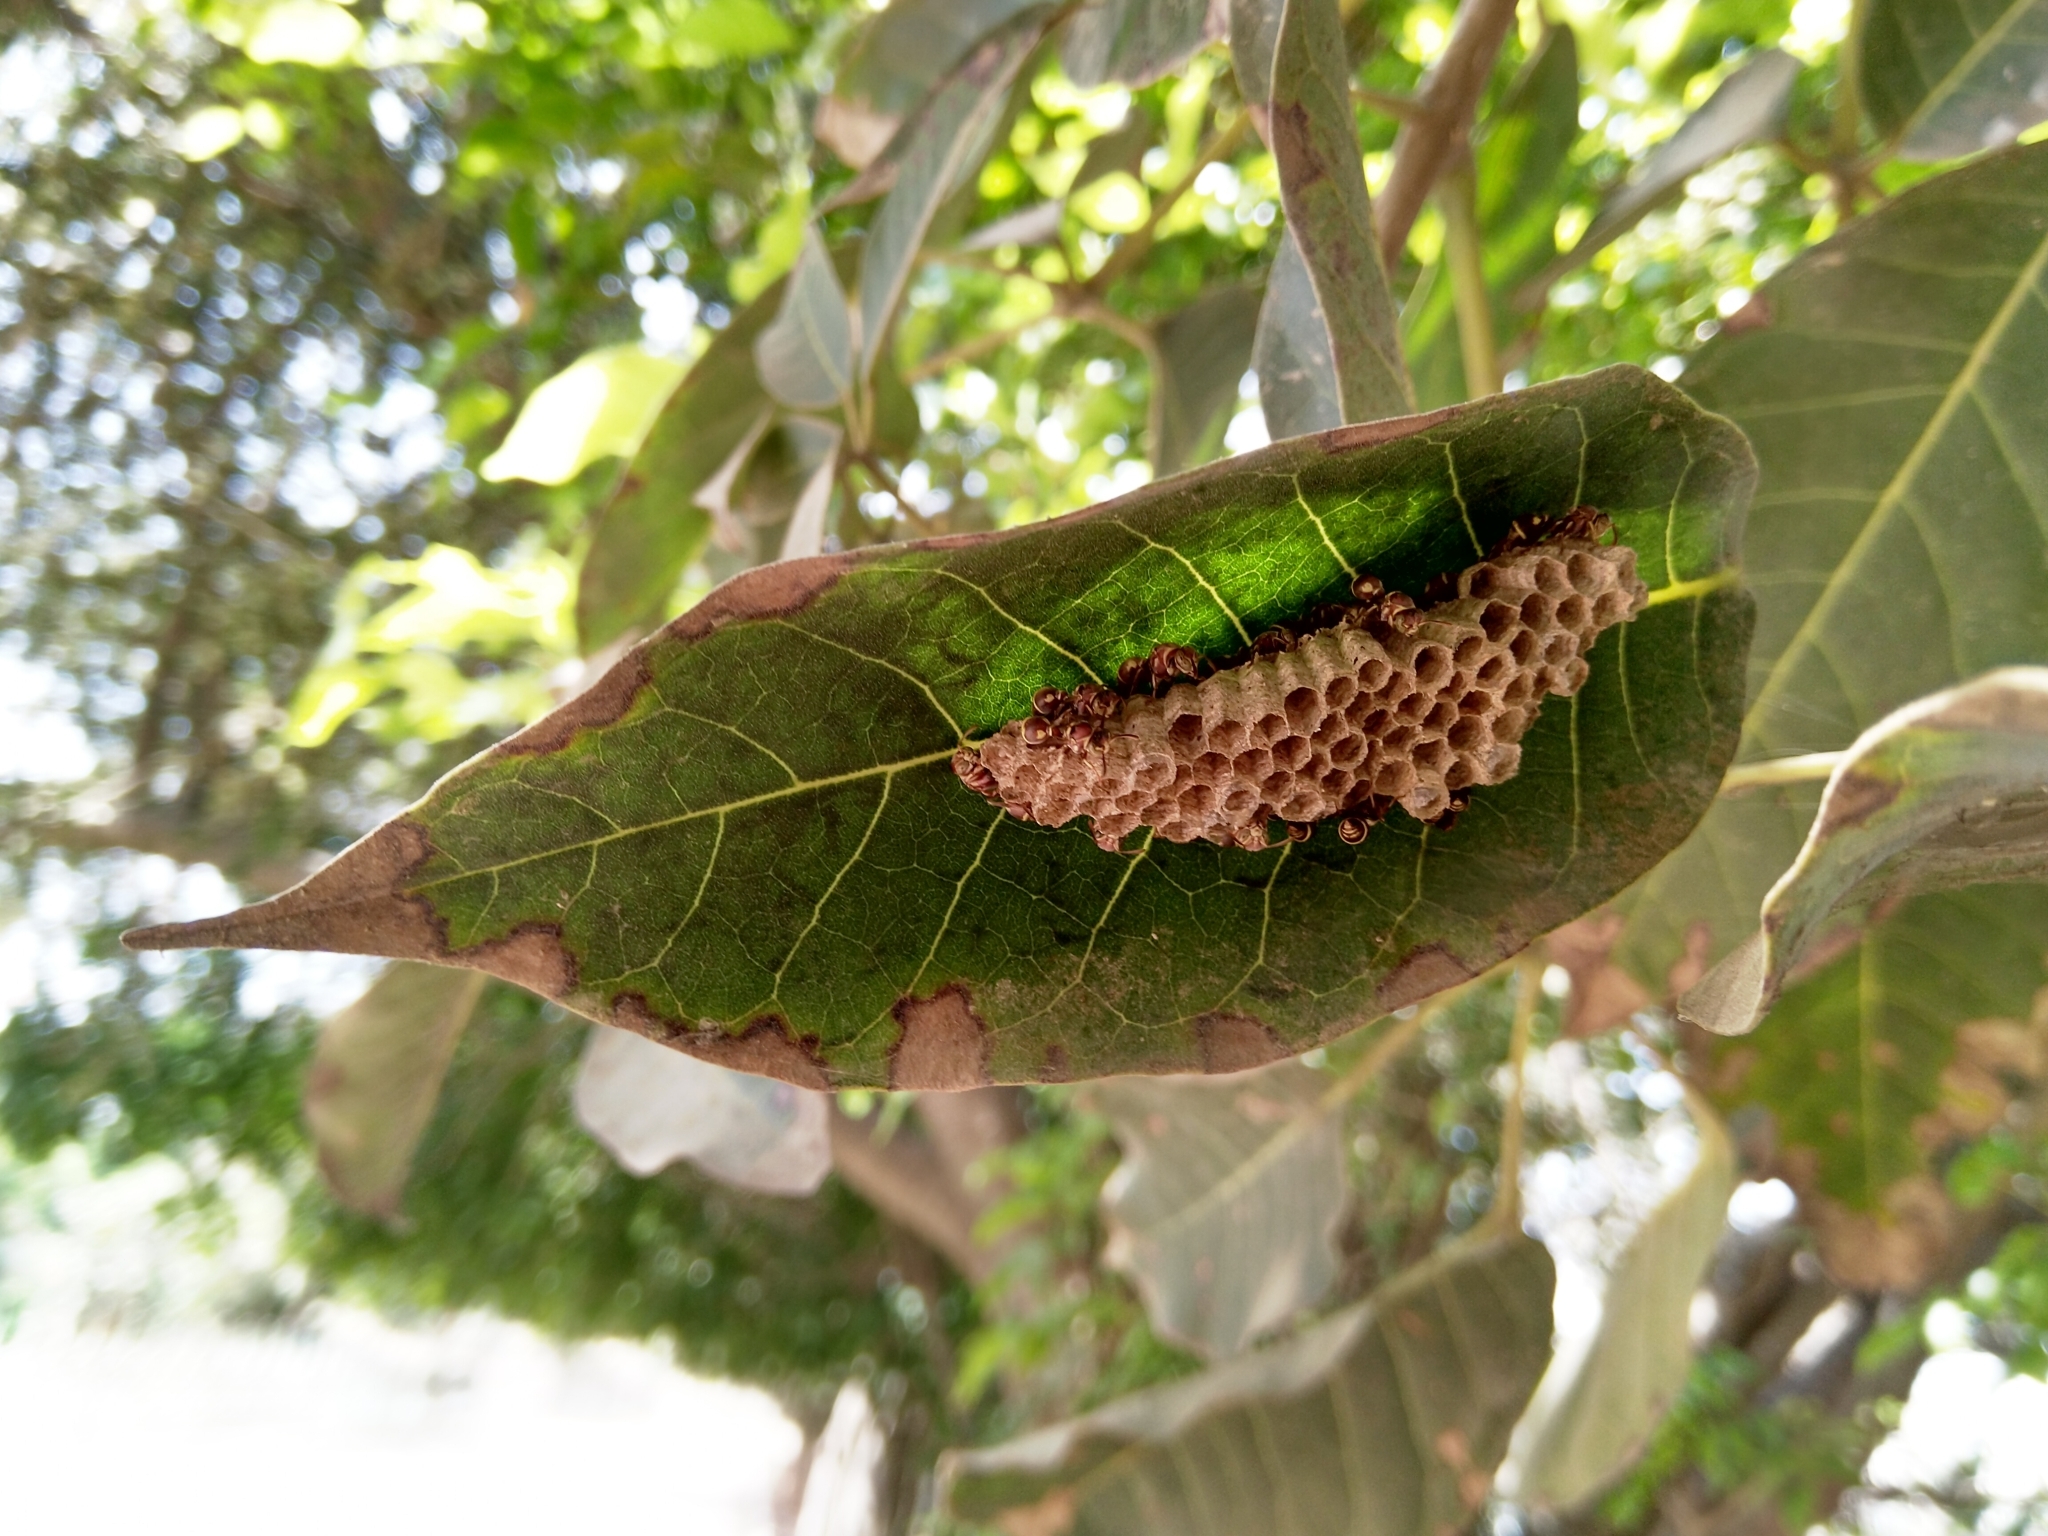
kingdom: Animalia
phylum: Arthropoda
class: Insecta
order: Hymenoptera
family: Vespidae
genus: Ropalidia
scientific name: Ropalidia cyathiformis
